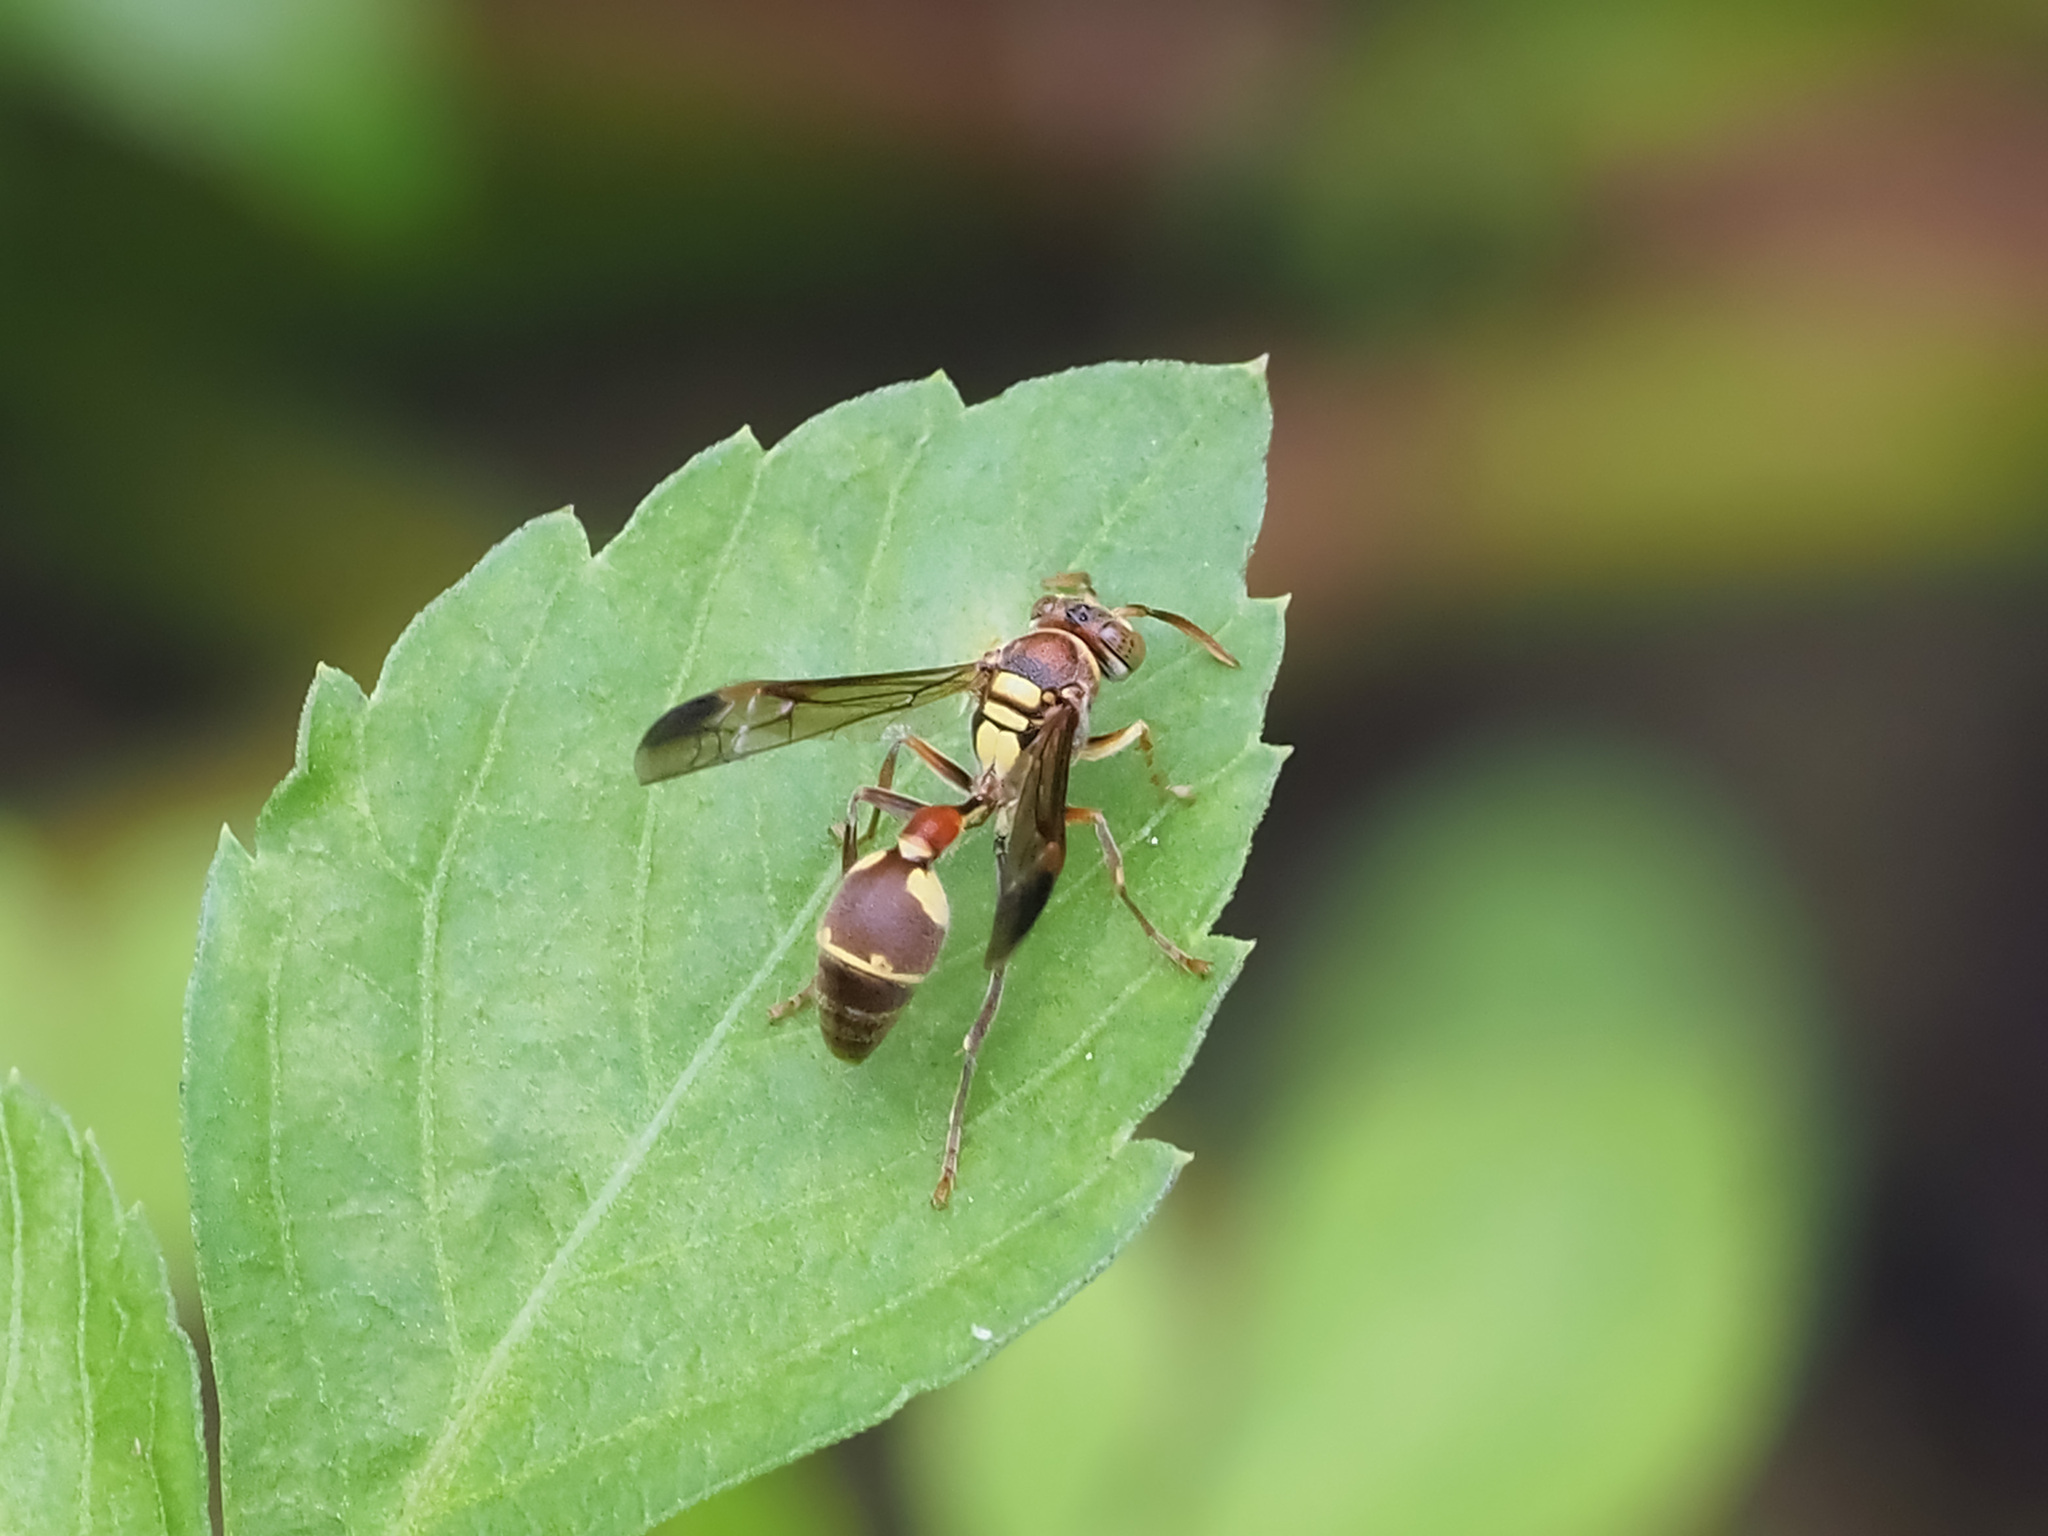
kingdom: Animalia
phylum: Arthropoda
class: Insecta
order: Hymenoptera
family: Vespidae
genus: Ropalidia
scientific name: Ropalidia stigma
